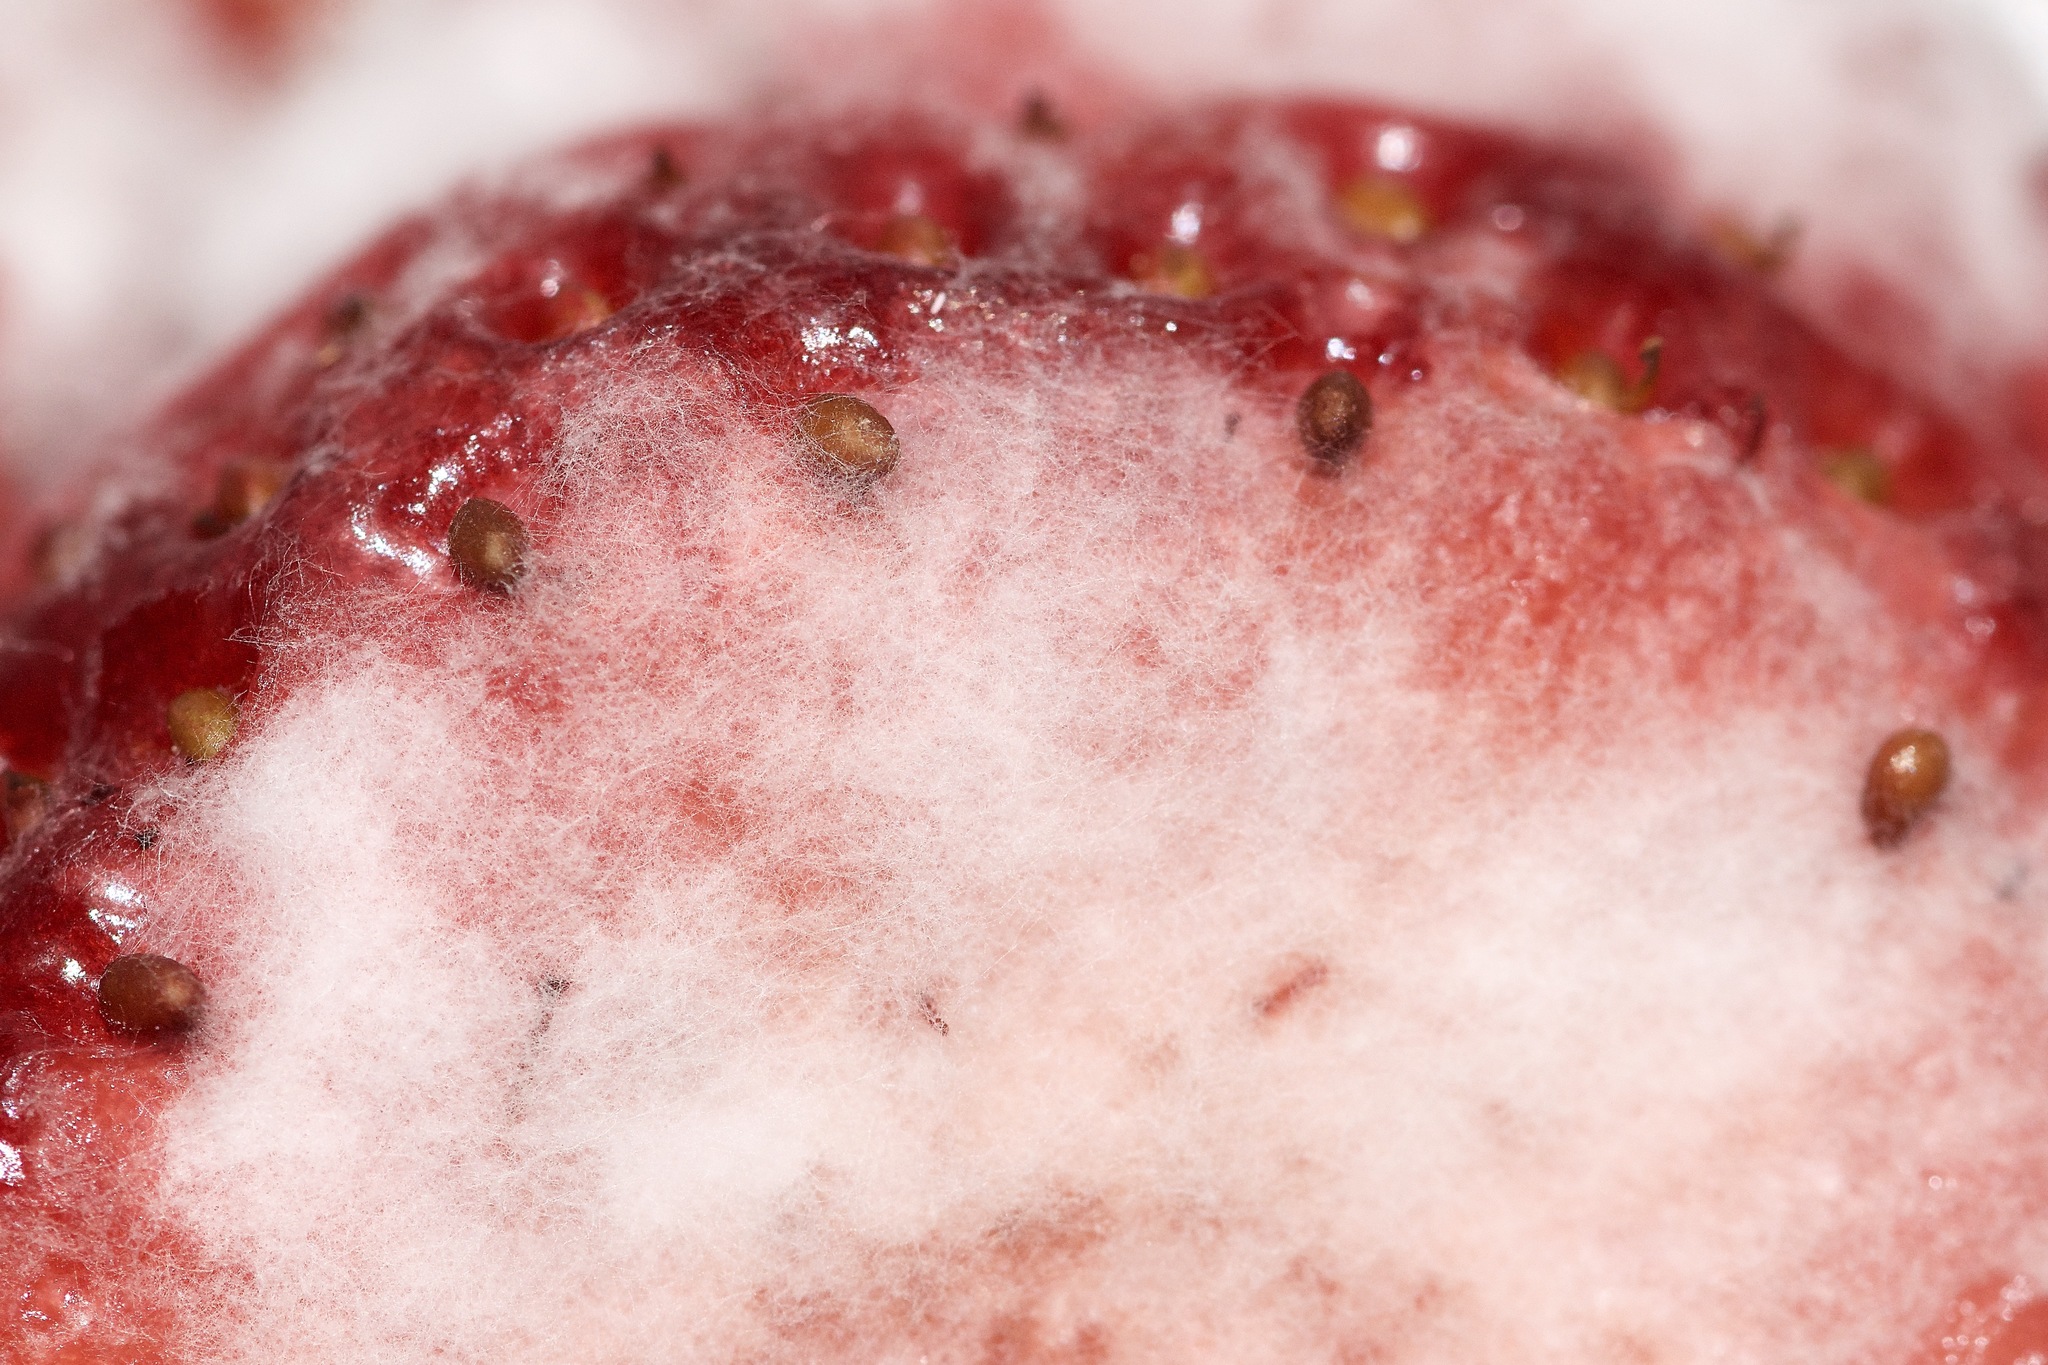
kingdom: Fungi
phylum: Ascomycota
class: Leotiomycetes
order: Helotiales
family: Sclerotiniaceae
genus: Botrytis
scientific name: Botrytis cinerea
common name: Grey mould
